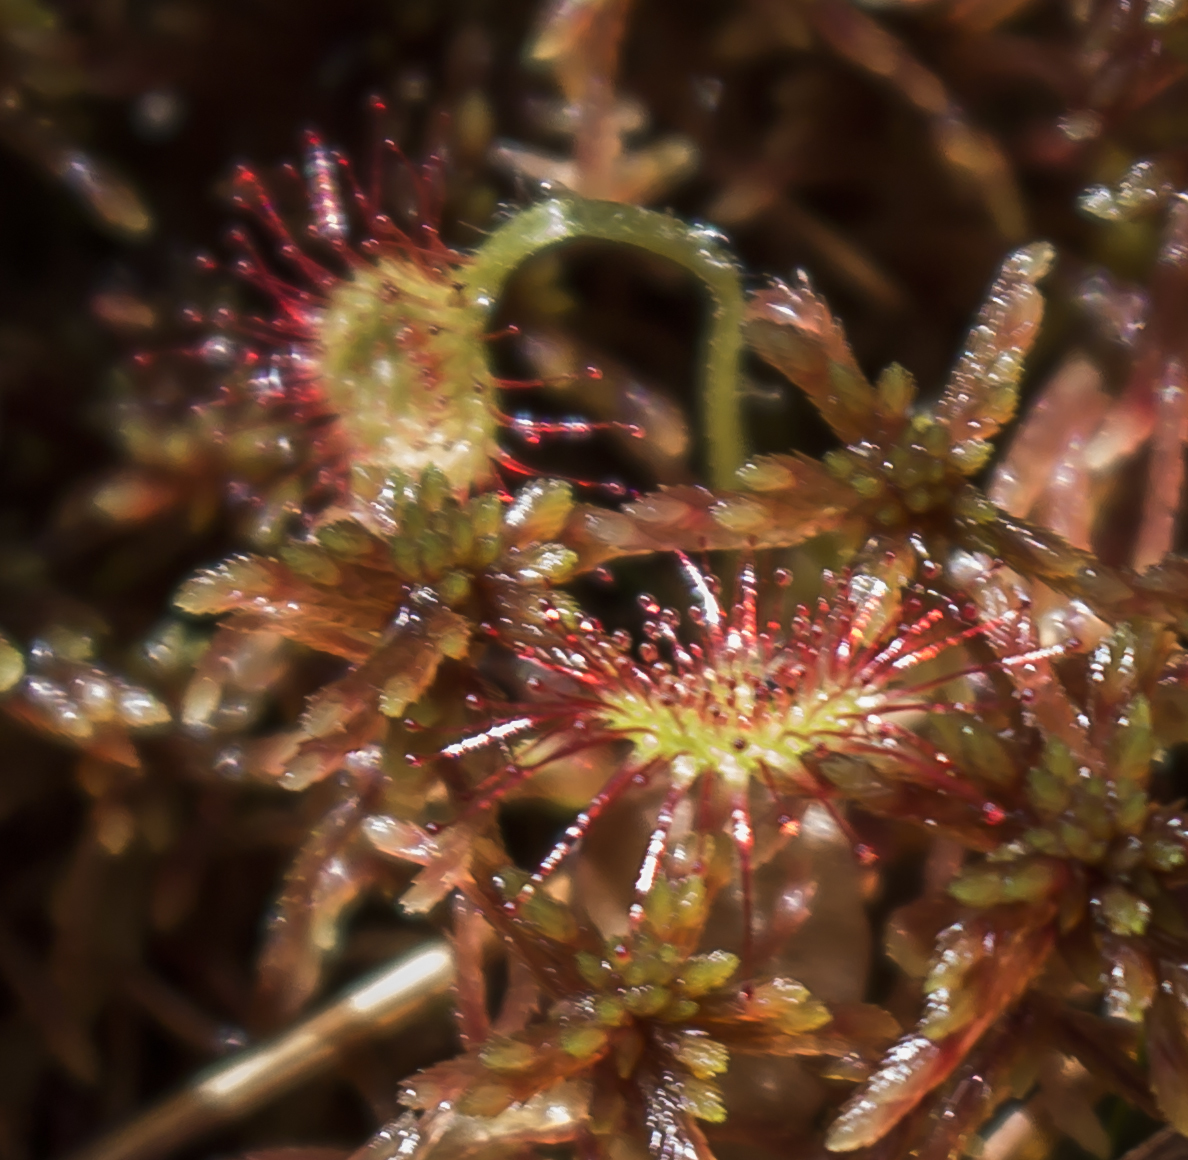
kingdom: Plantae
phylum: Tracheophyta
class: Magnoliopsida
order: Caryophyllales
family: Droseraceae
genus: Drosera
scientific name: Drosera rotundifolia
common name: Round-leaved sundew
